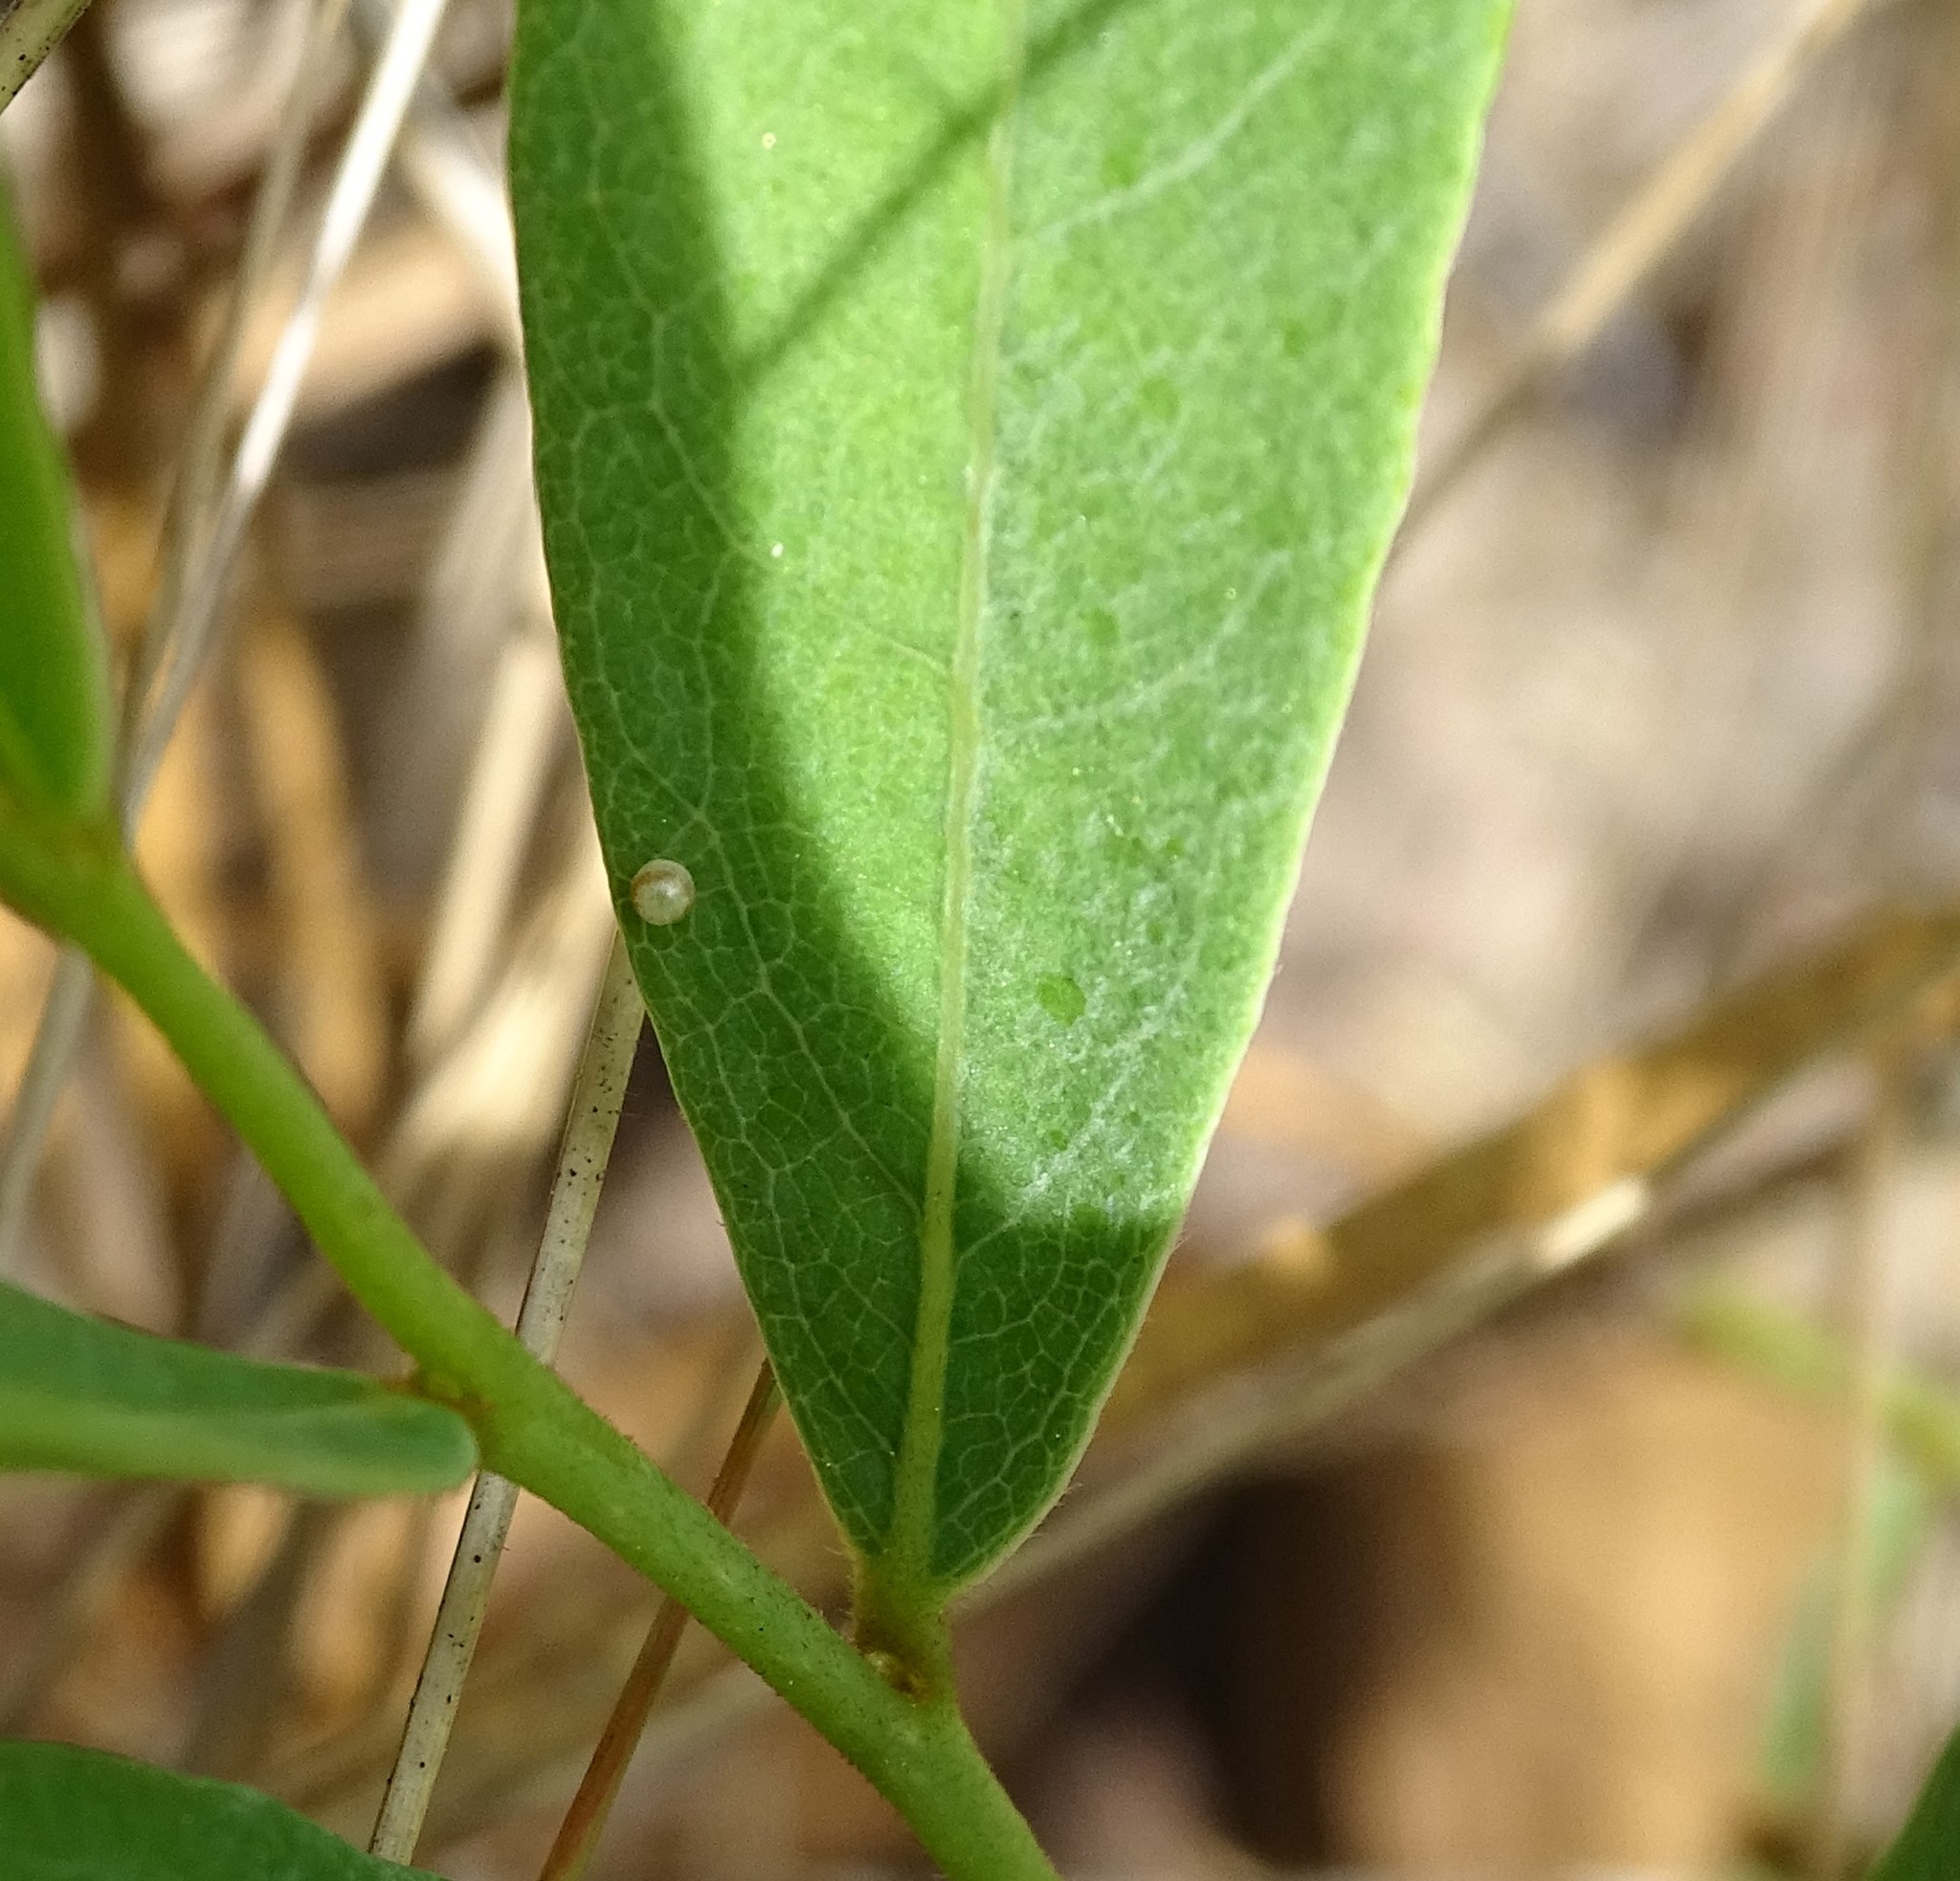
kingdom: Animalia
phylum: Arthropoda
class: Insecta
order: Lepidoptera
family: Papilionidae
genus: Protographium
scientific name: Protographium marcellus
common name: Zebra swallowtail
